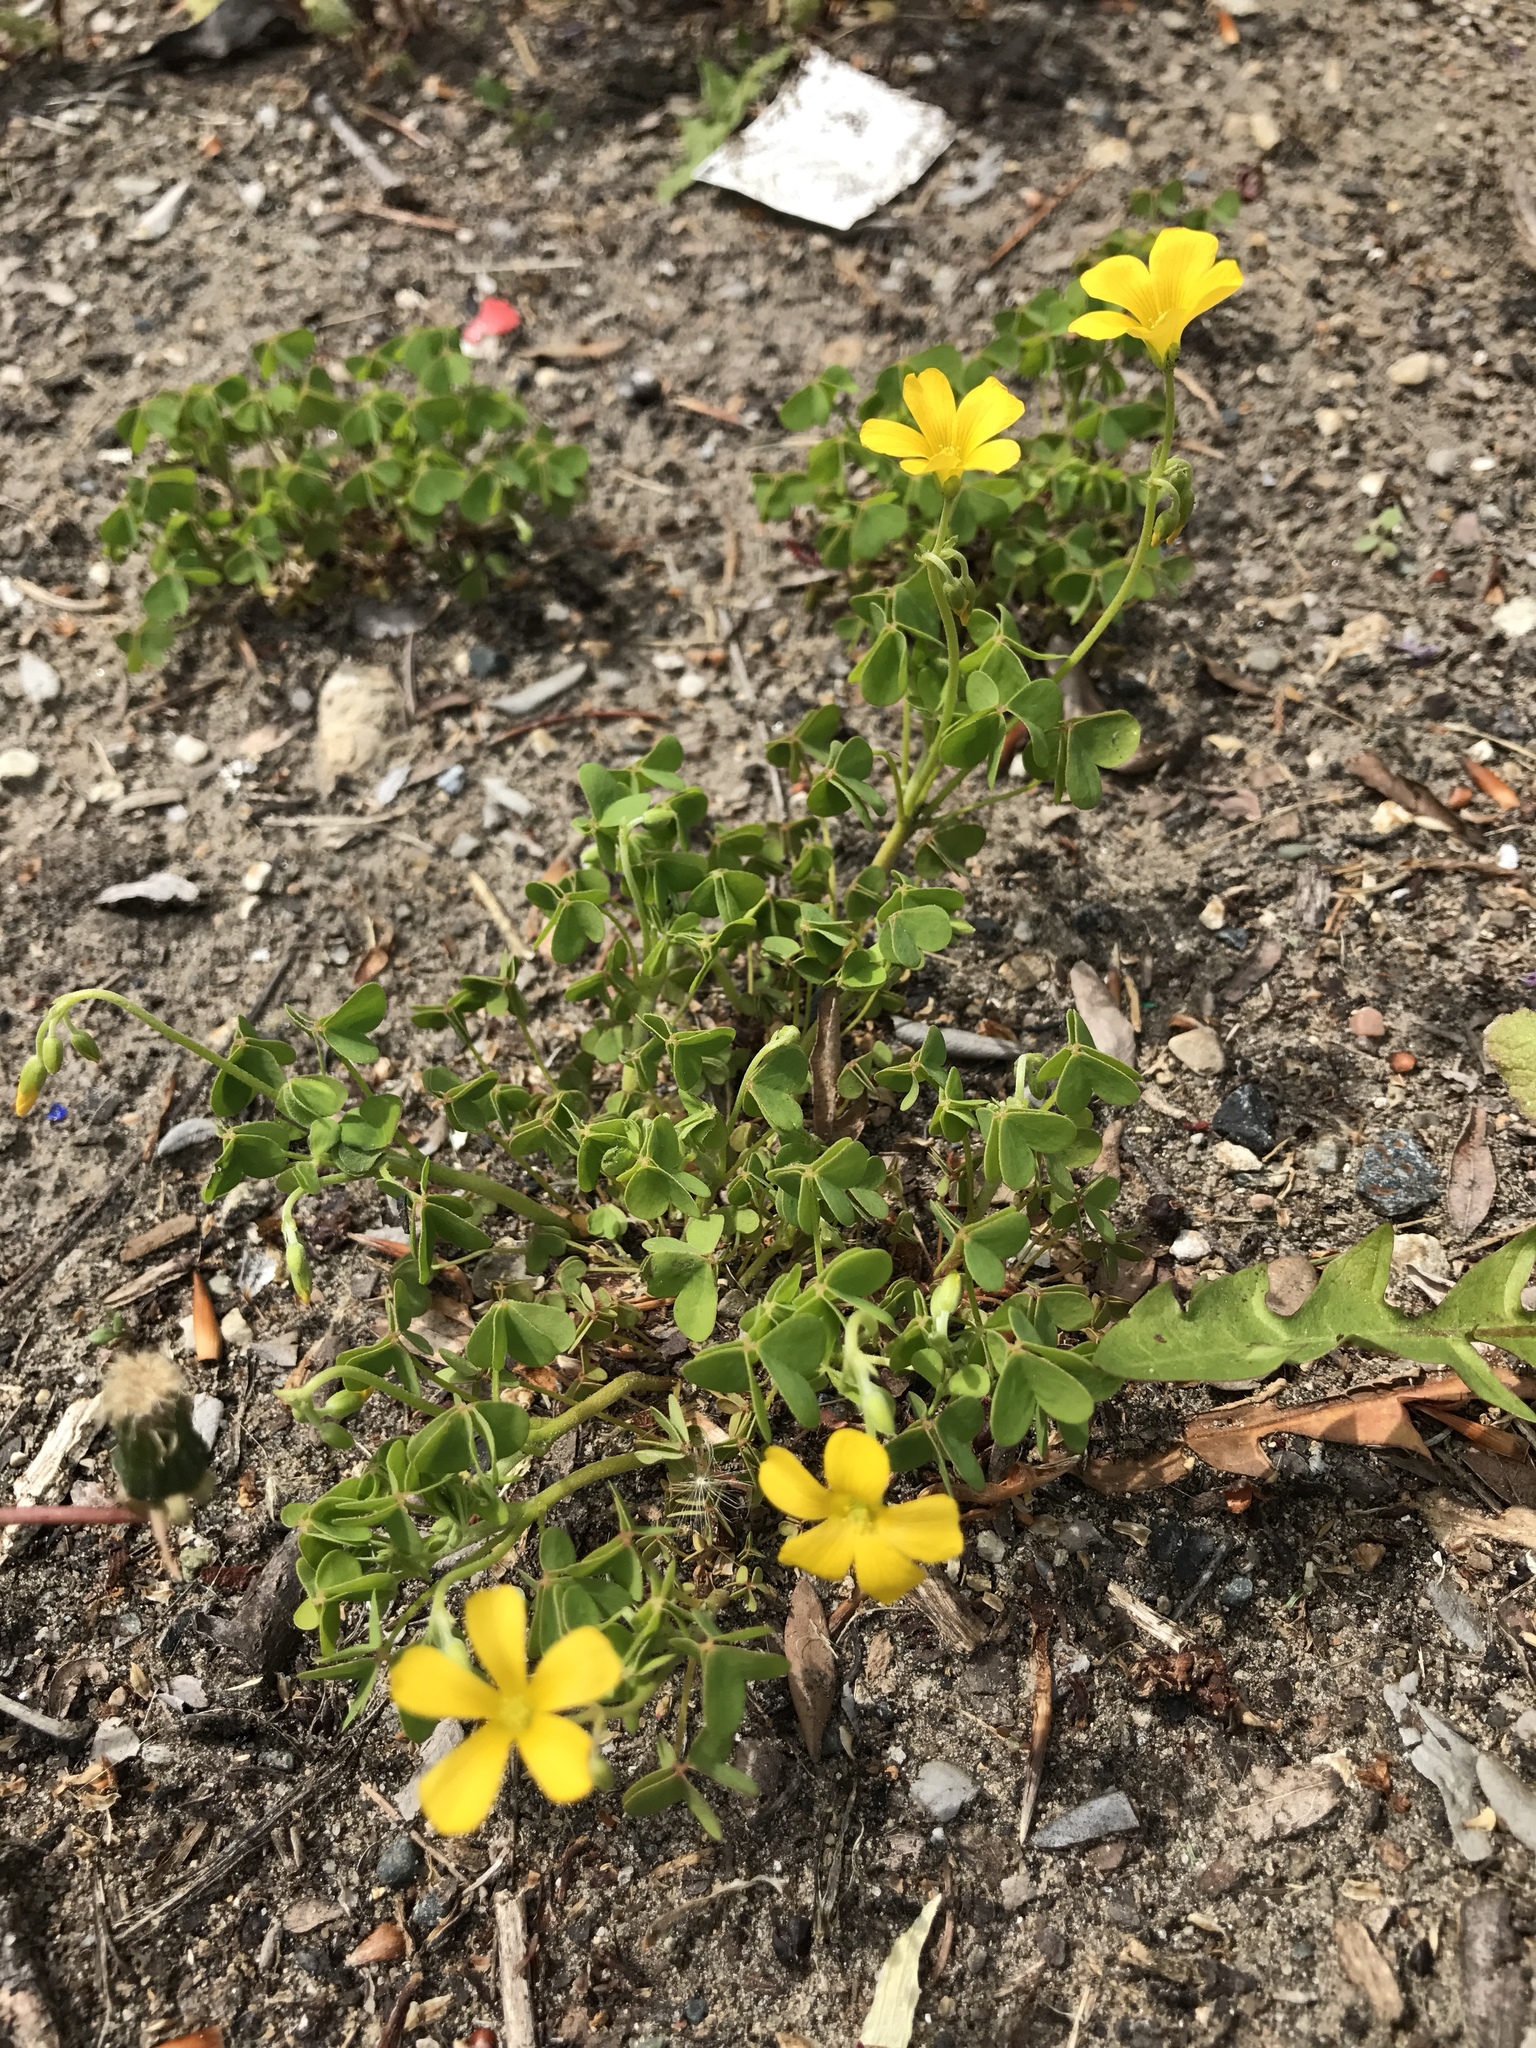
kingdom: Plantae
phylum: Tracheophyta
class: Magnoliopsida
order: Oxalidales
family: Oxalidaceae
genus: Oxalis
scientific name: Oxalis dillenii
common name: Sussex yellow-sorrel
